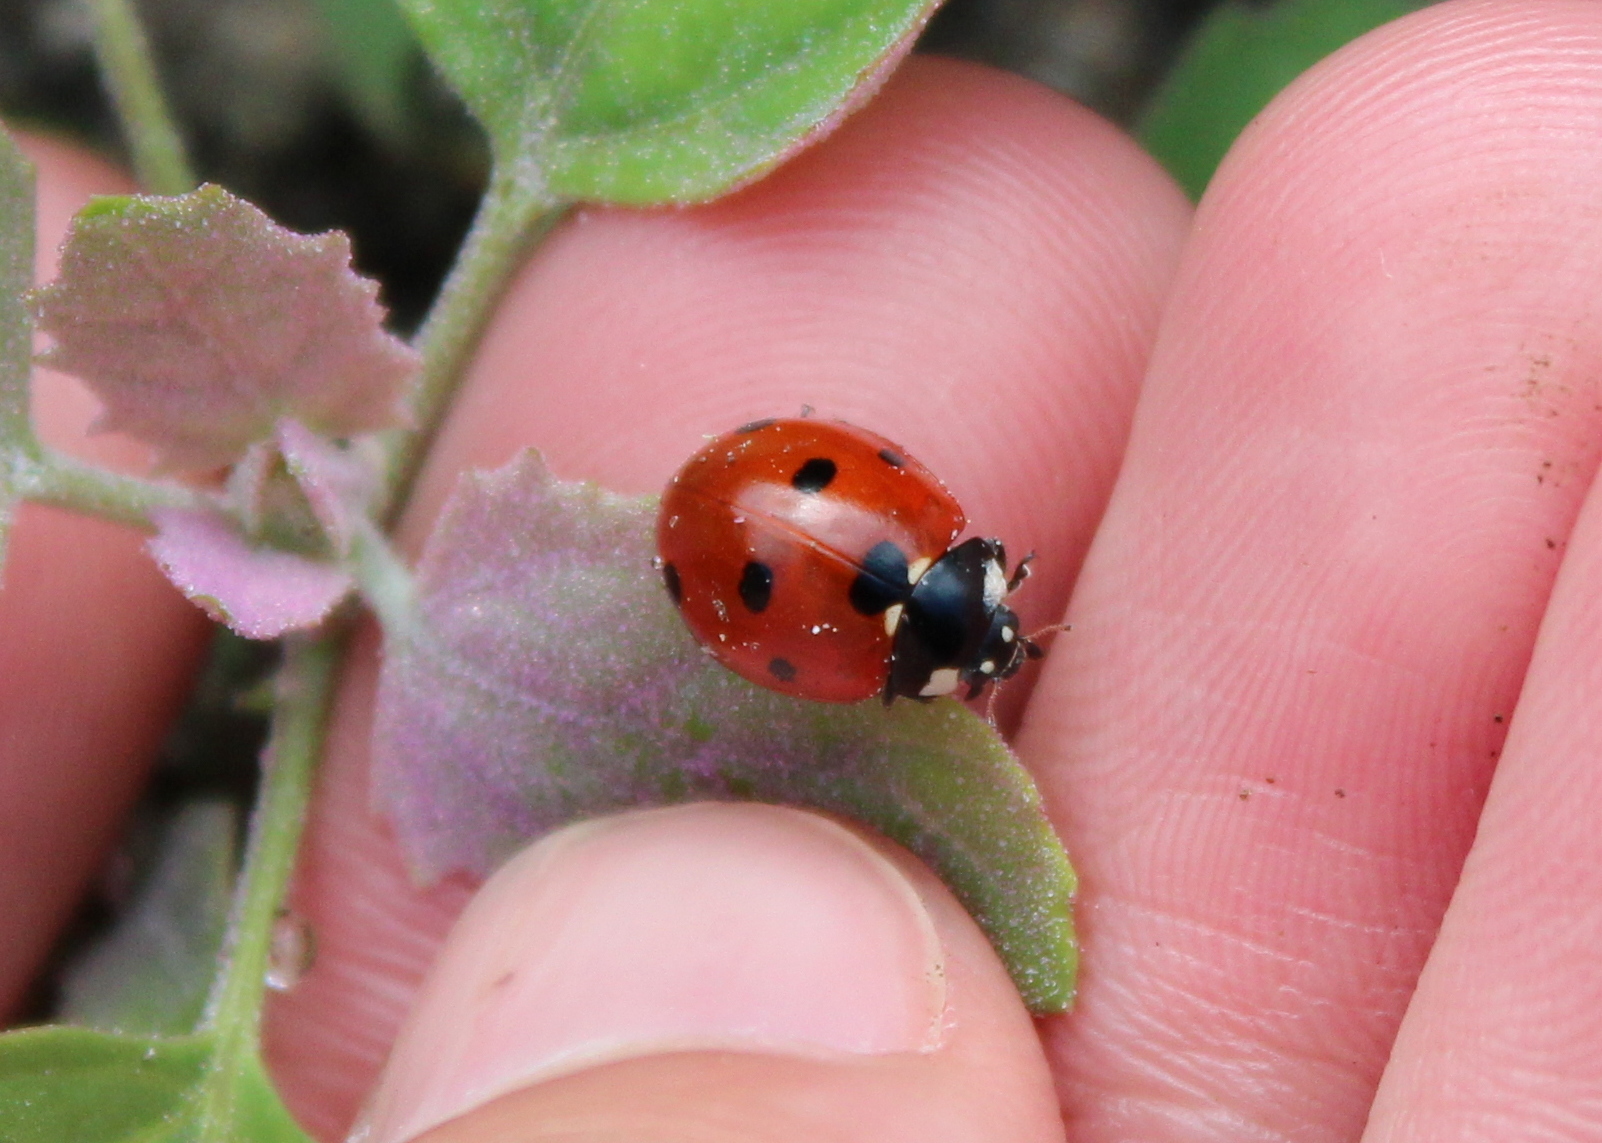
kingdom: Animalia
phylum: Arthropoda
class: Insecta
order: Coleoptera
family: Coccinellidae
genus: Coccinella
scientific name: Coccinella septempunctata
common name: Sevenspotted lady beetle
